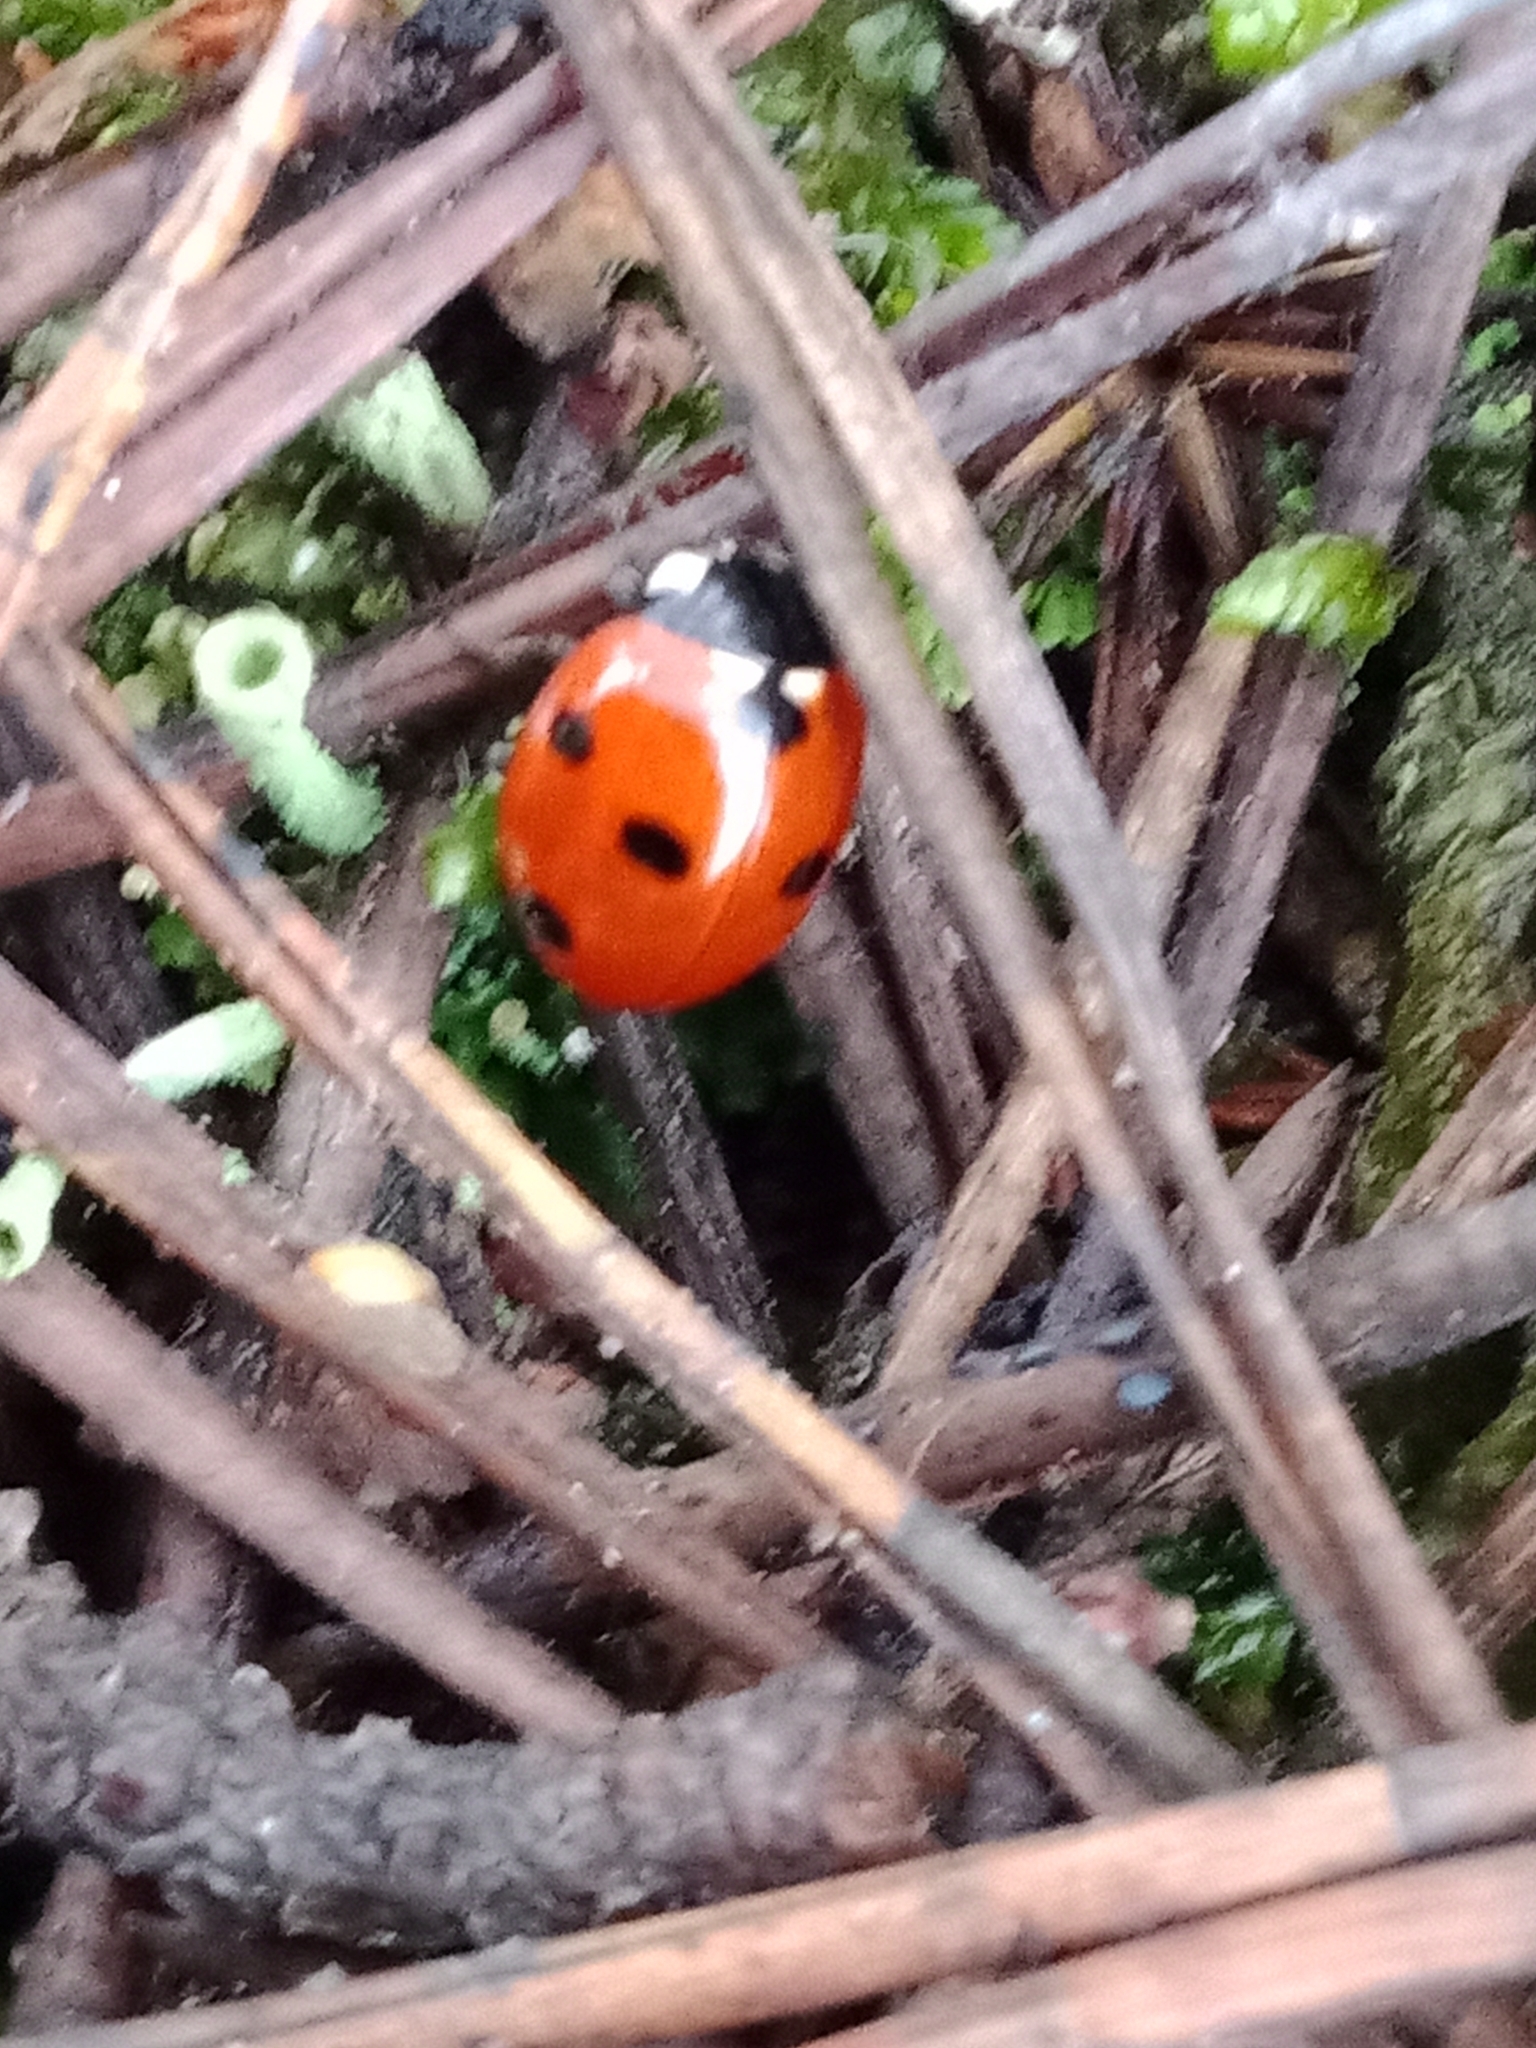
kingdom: Animalia
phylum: Arthropoda
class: Insecta
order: Coleoptera
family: Coccinellidae
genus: Coccinella
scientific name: Coccinella septempunctata
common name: Sevenspotted lady beetle
